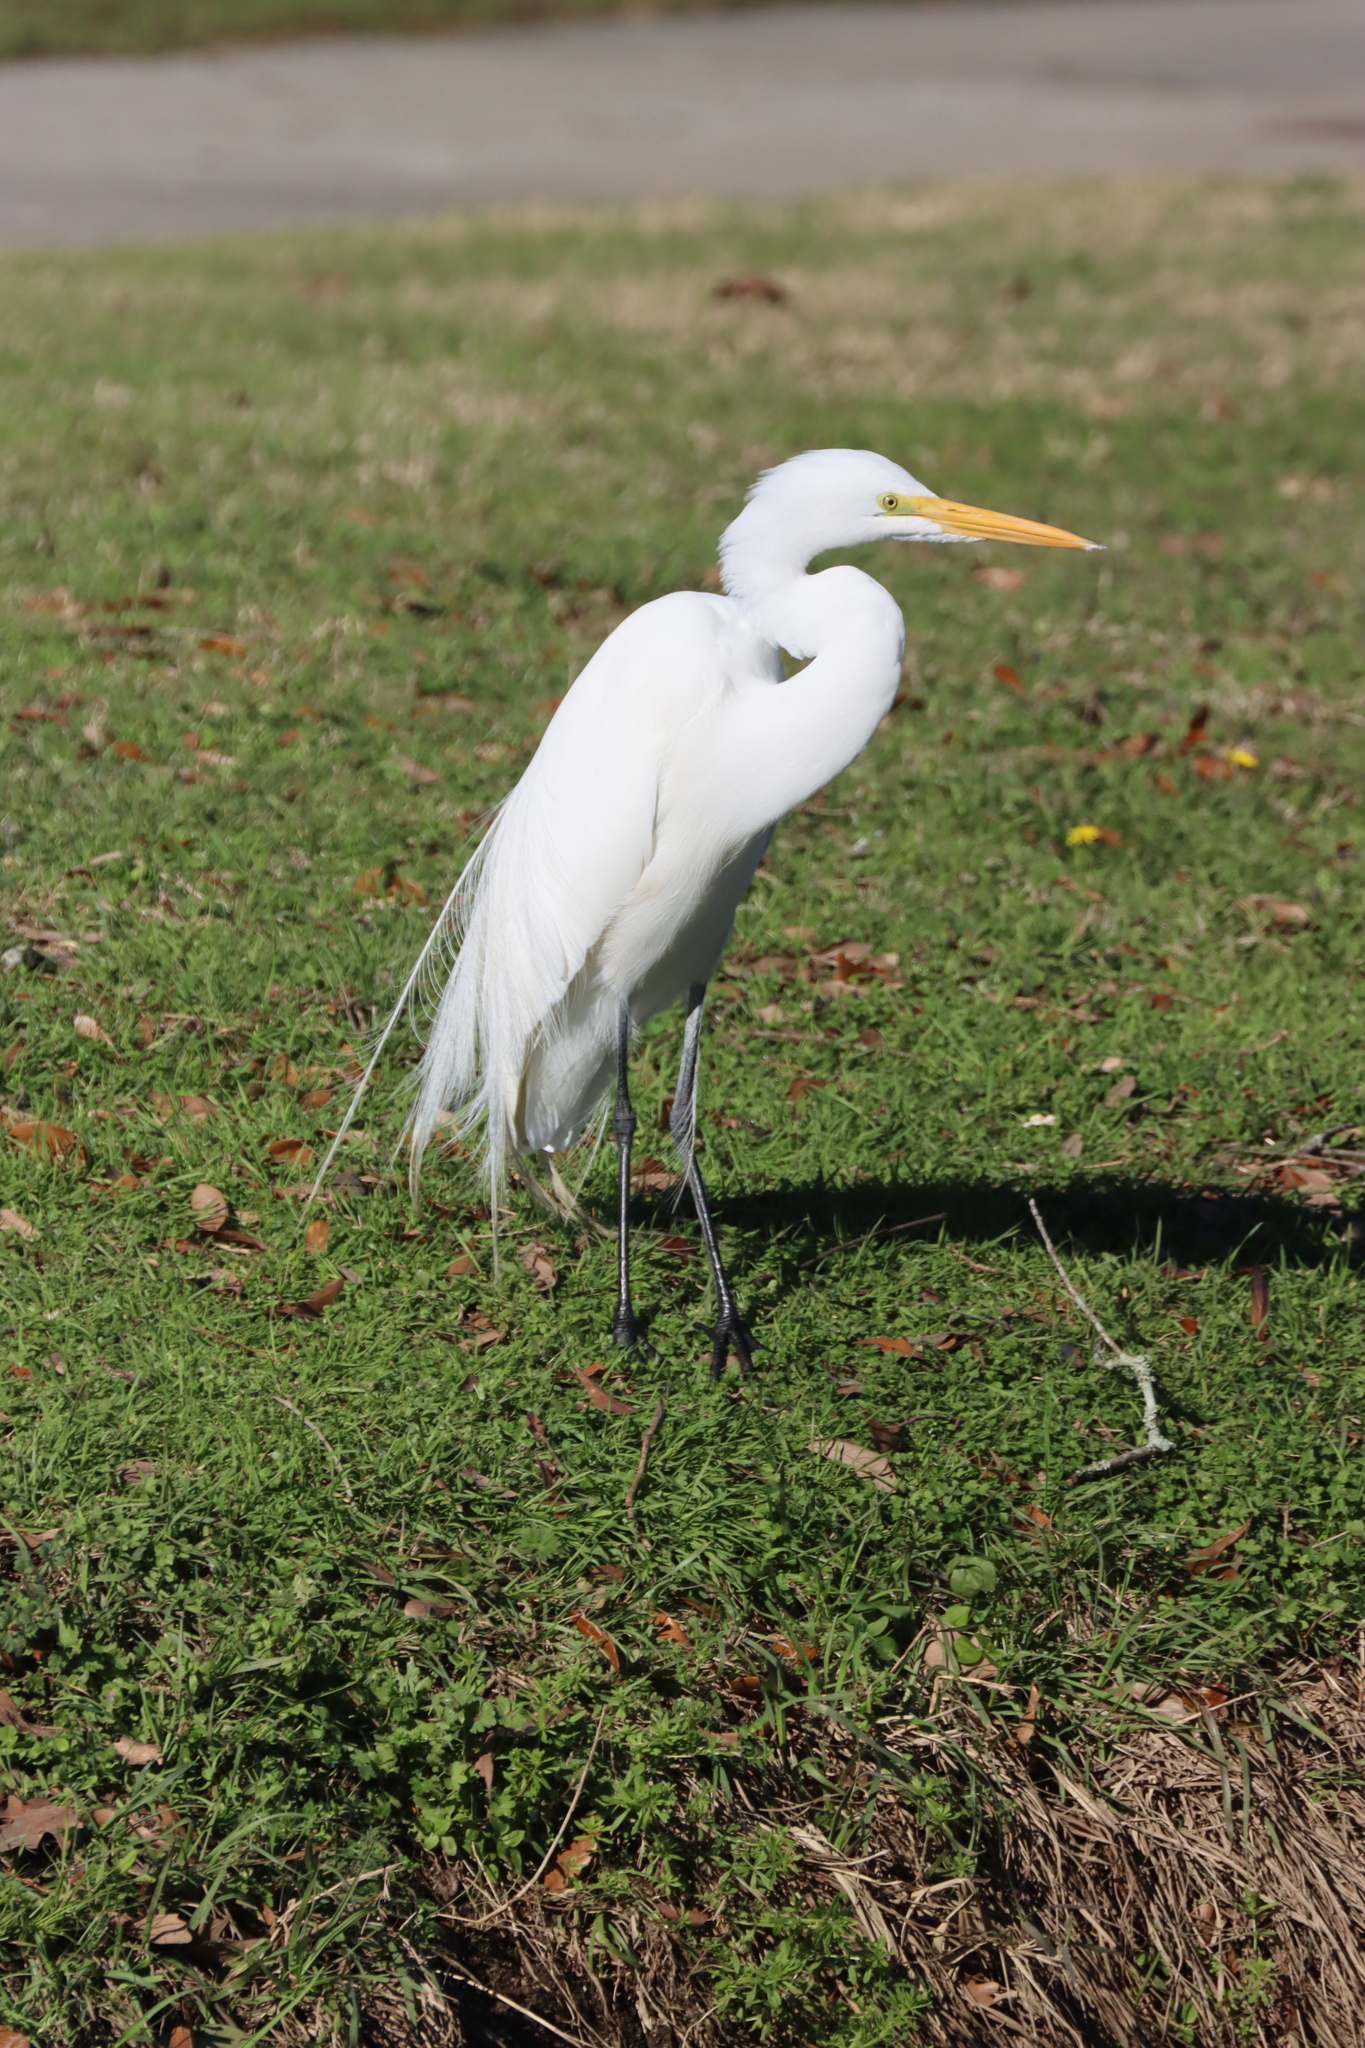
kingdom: Animalia
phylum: Chordata
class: Aves
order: Pelecaniformes
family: Ardeidae
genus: Ardea
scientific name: Ardea alba
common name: Great egret
